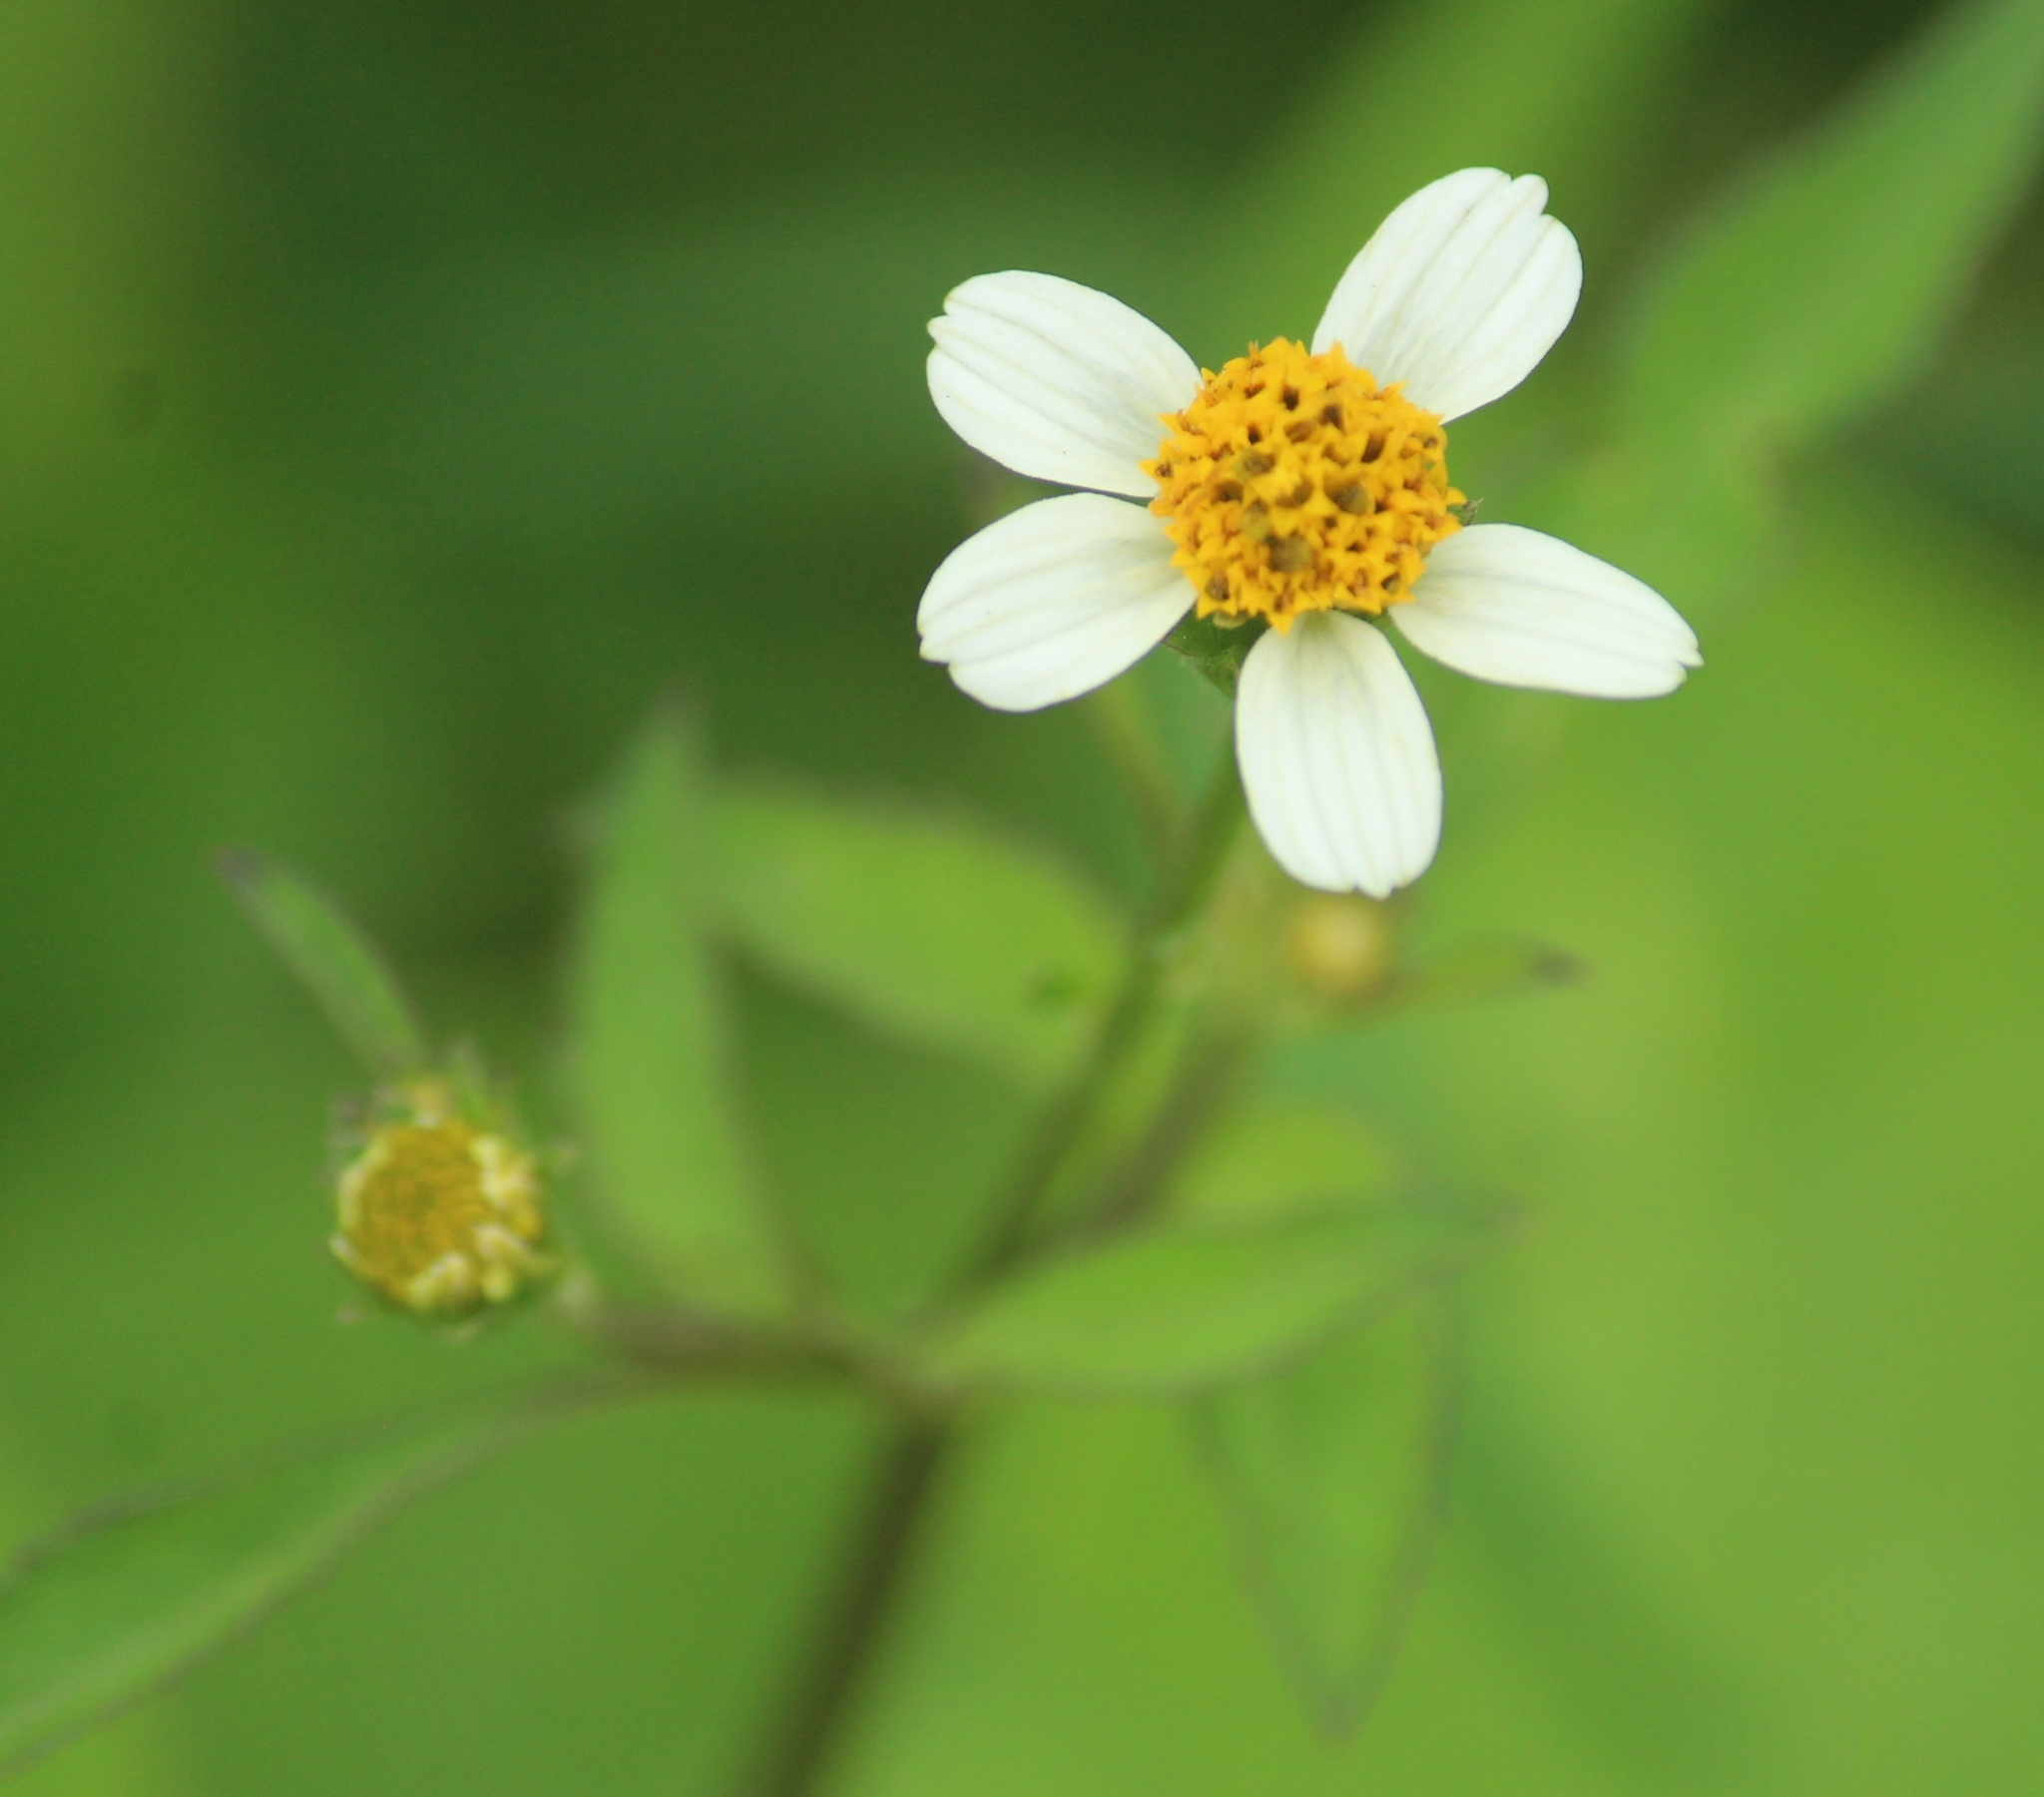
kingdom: Plantae
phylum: Tracheophyta
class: Magnoliopsida
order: Asterales
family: Asteraceae
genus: Bidens
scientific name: Bidens alba
